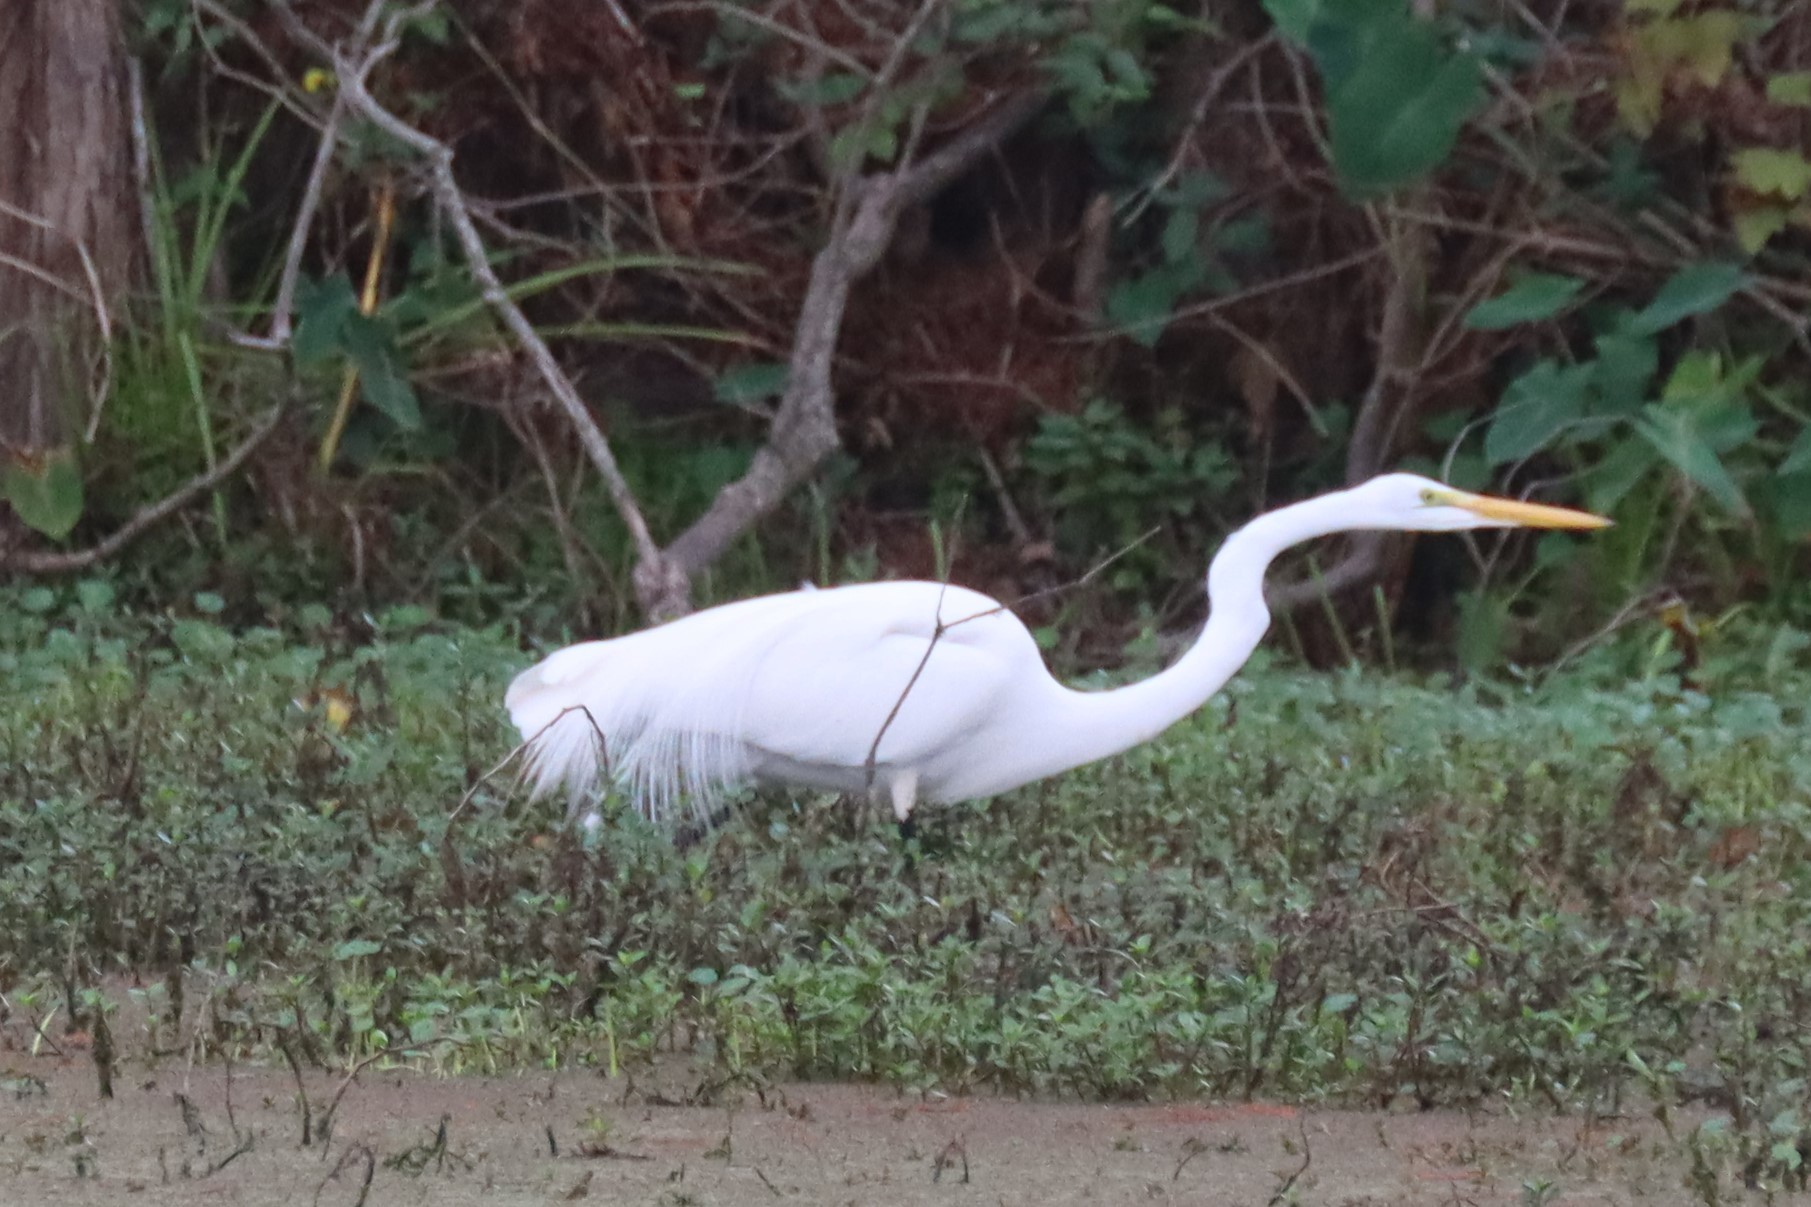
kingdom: Animalia
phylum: Chordata
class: Aves
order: Pelecaniformes
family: Ardeidae
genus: Ardea
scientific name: Ardea alba
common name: Great egret
